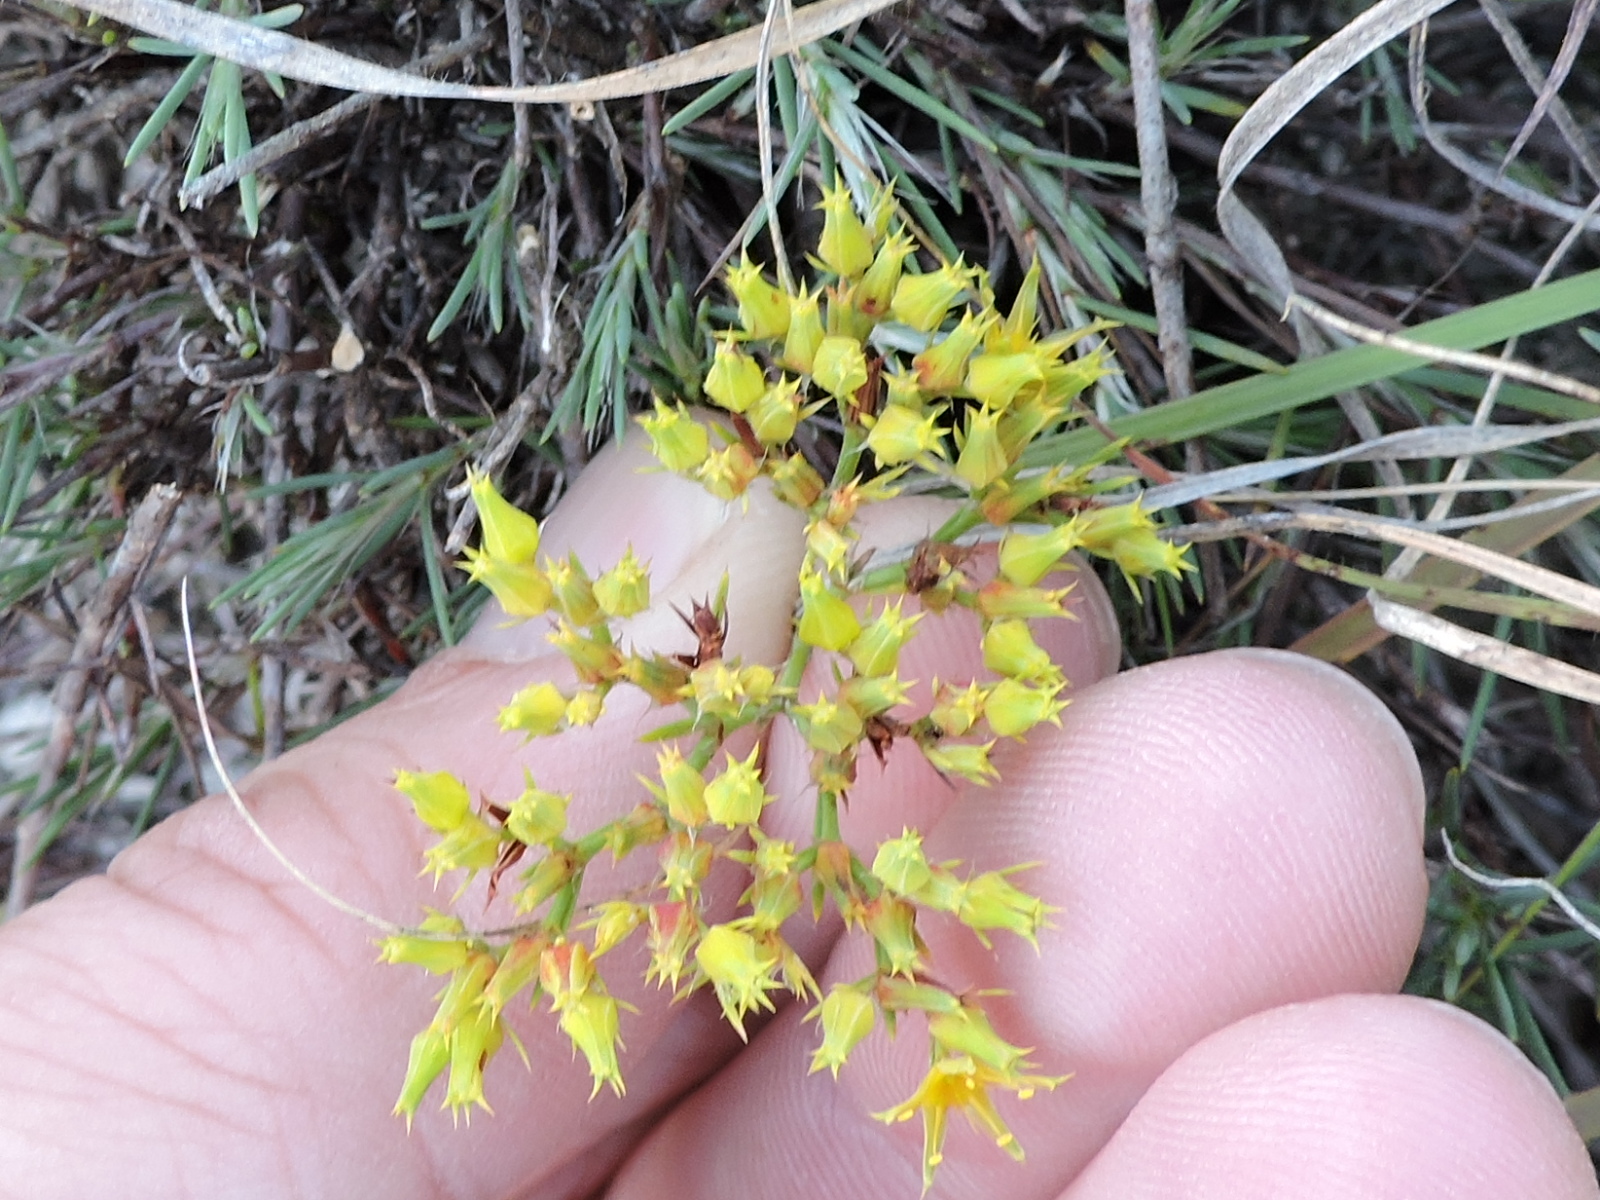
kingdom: Plantae
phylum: Tracheophyta
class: Magnoliopsida
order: Caryophyllales
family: Caryophyllaceae
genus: Paronychia
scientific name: Paronychia virginica
